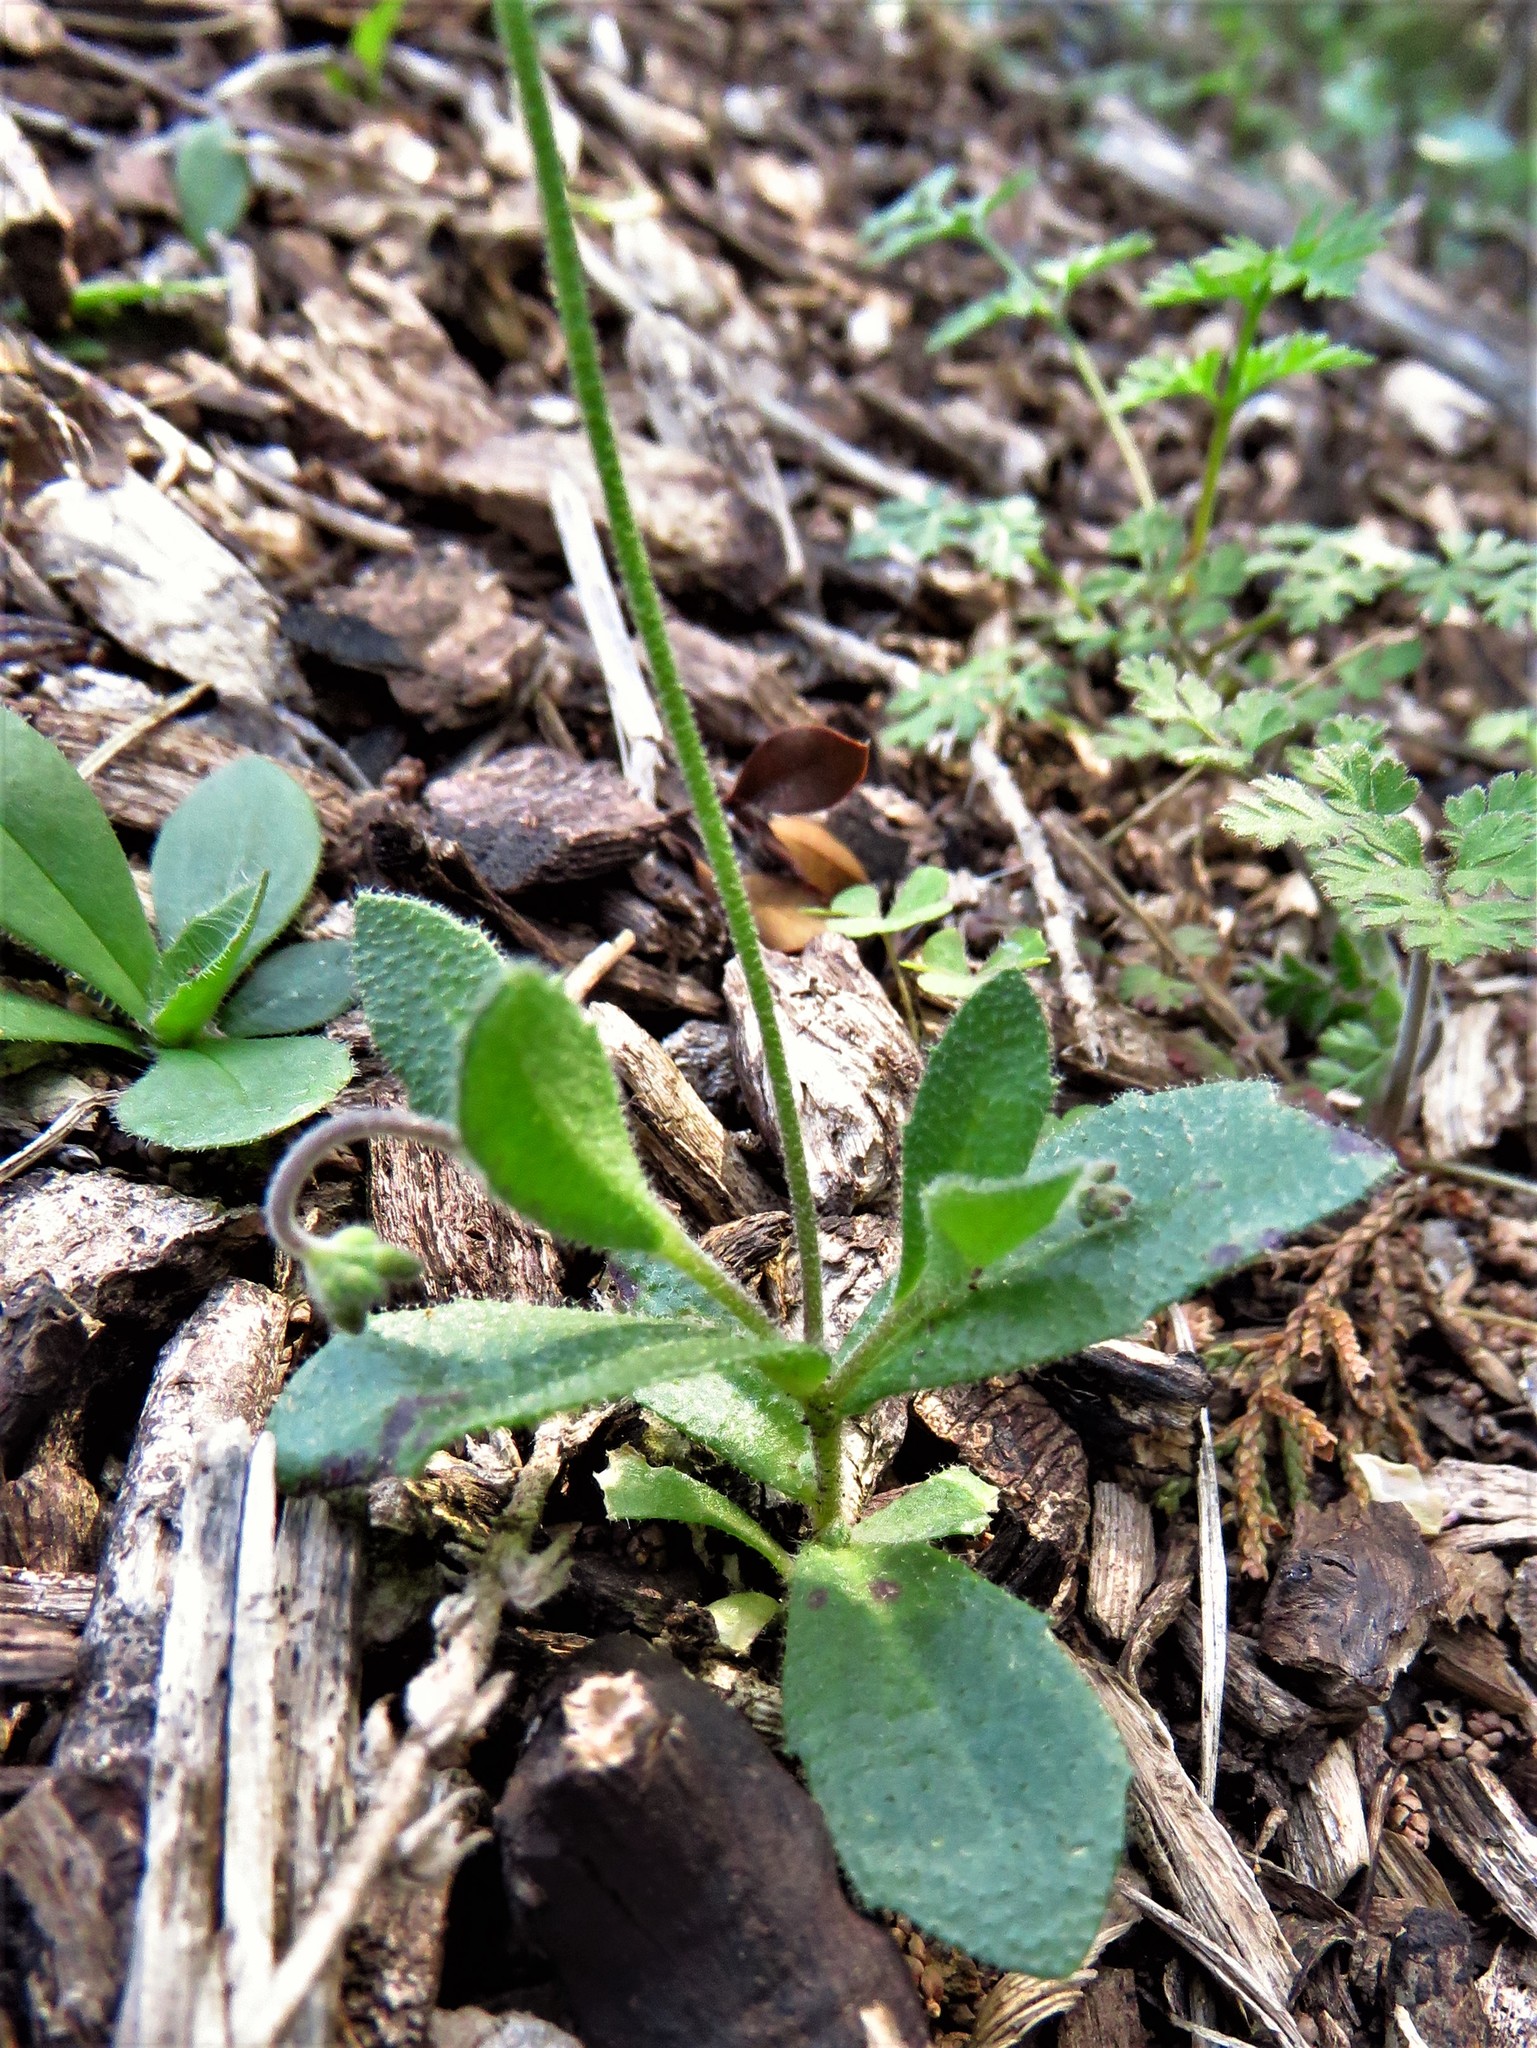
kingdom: Plantae
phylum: Tracheophyta
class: Magnoliopsida
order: Brassicales
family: Brassicaceae
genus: Tomostima
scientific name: Tomostima cuneifolia
